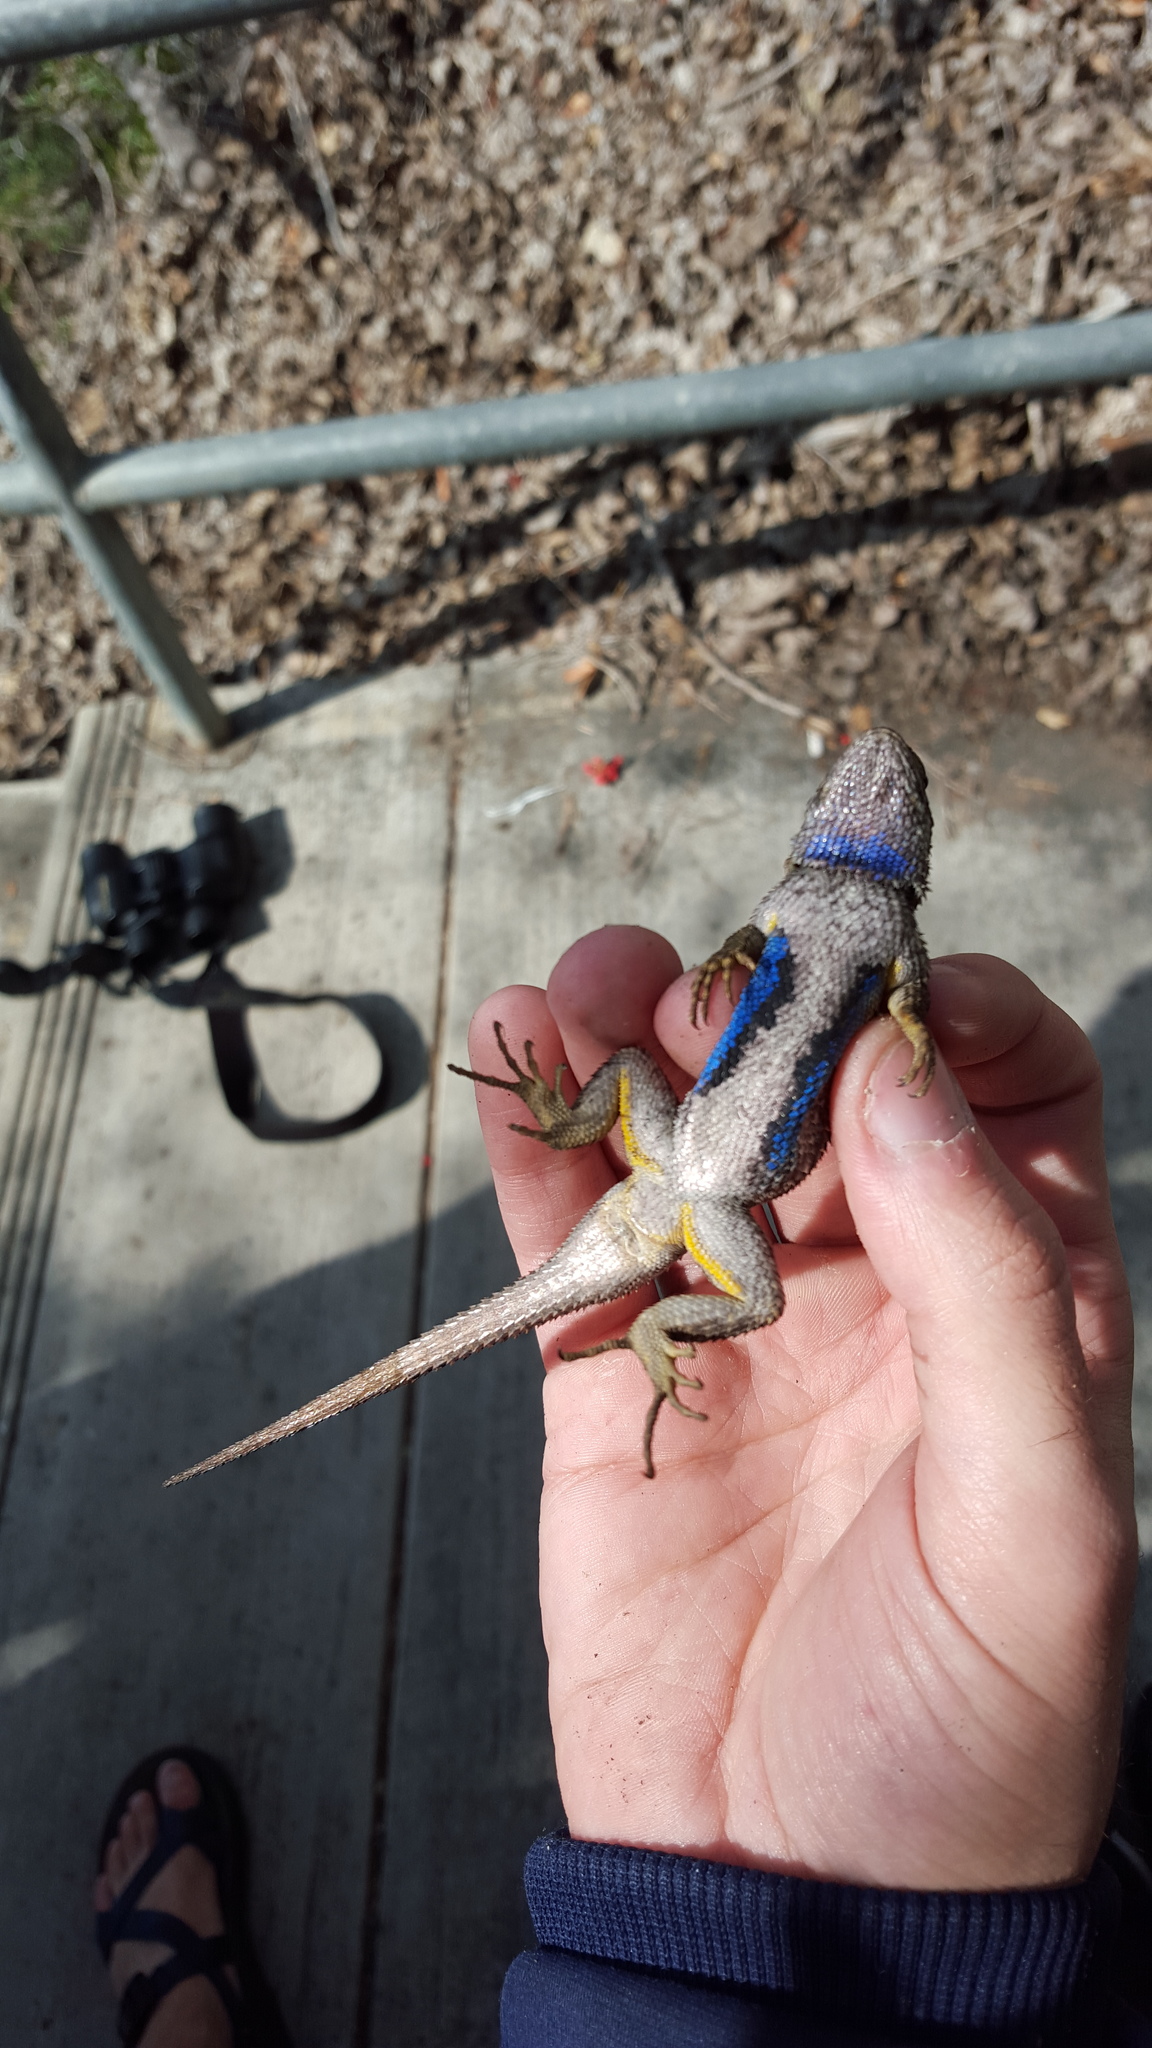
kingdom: Animalia
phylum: Chordata
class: Squamata
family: Phrynosomatidae
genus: Sceloporus
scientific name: Sceloporus occidentalis
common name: Western fence lizard
